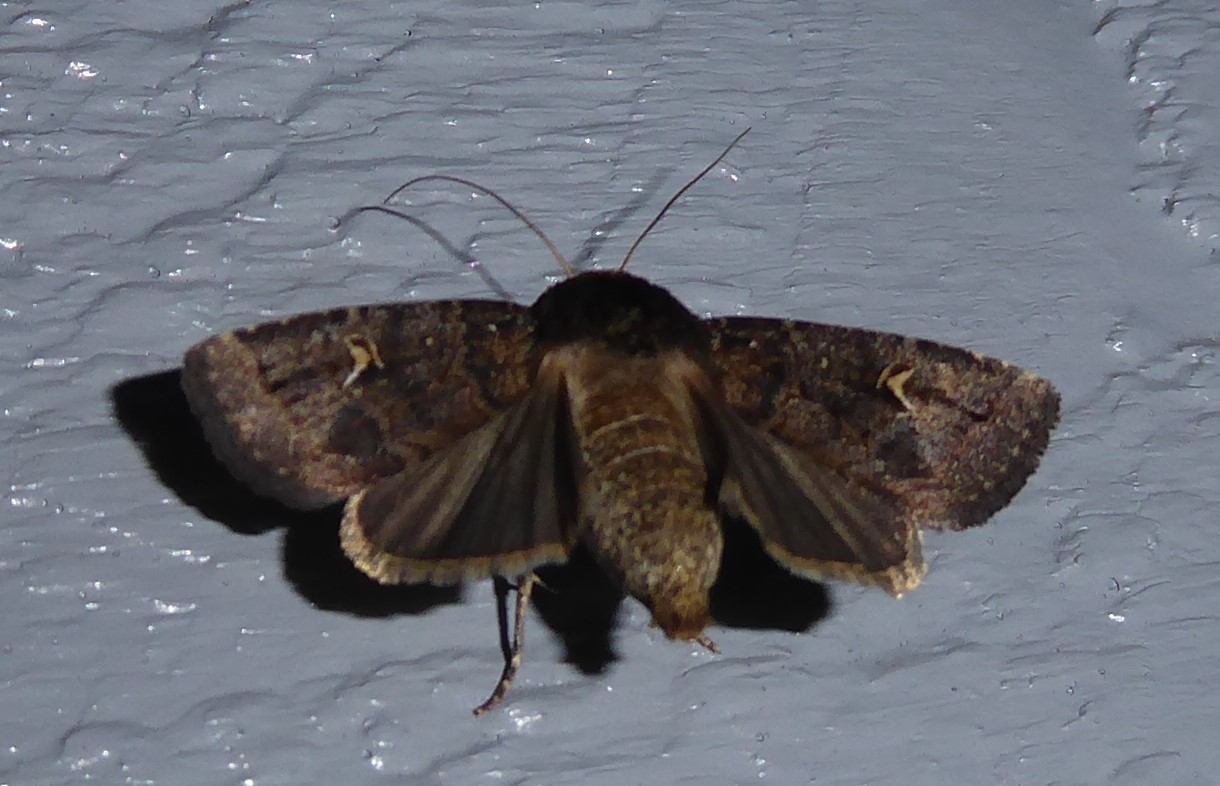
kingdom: Animalia
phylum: Arthropoda
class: Insecta
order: Lepidoptera
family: Noctuidae
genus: Proteuxoa
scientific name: Proteuxoa tetronycha
